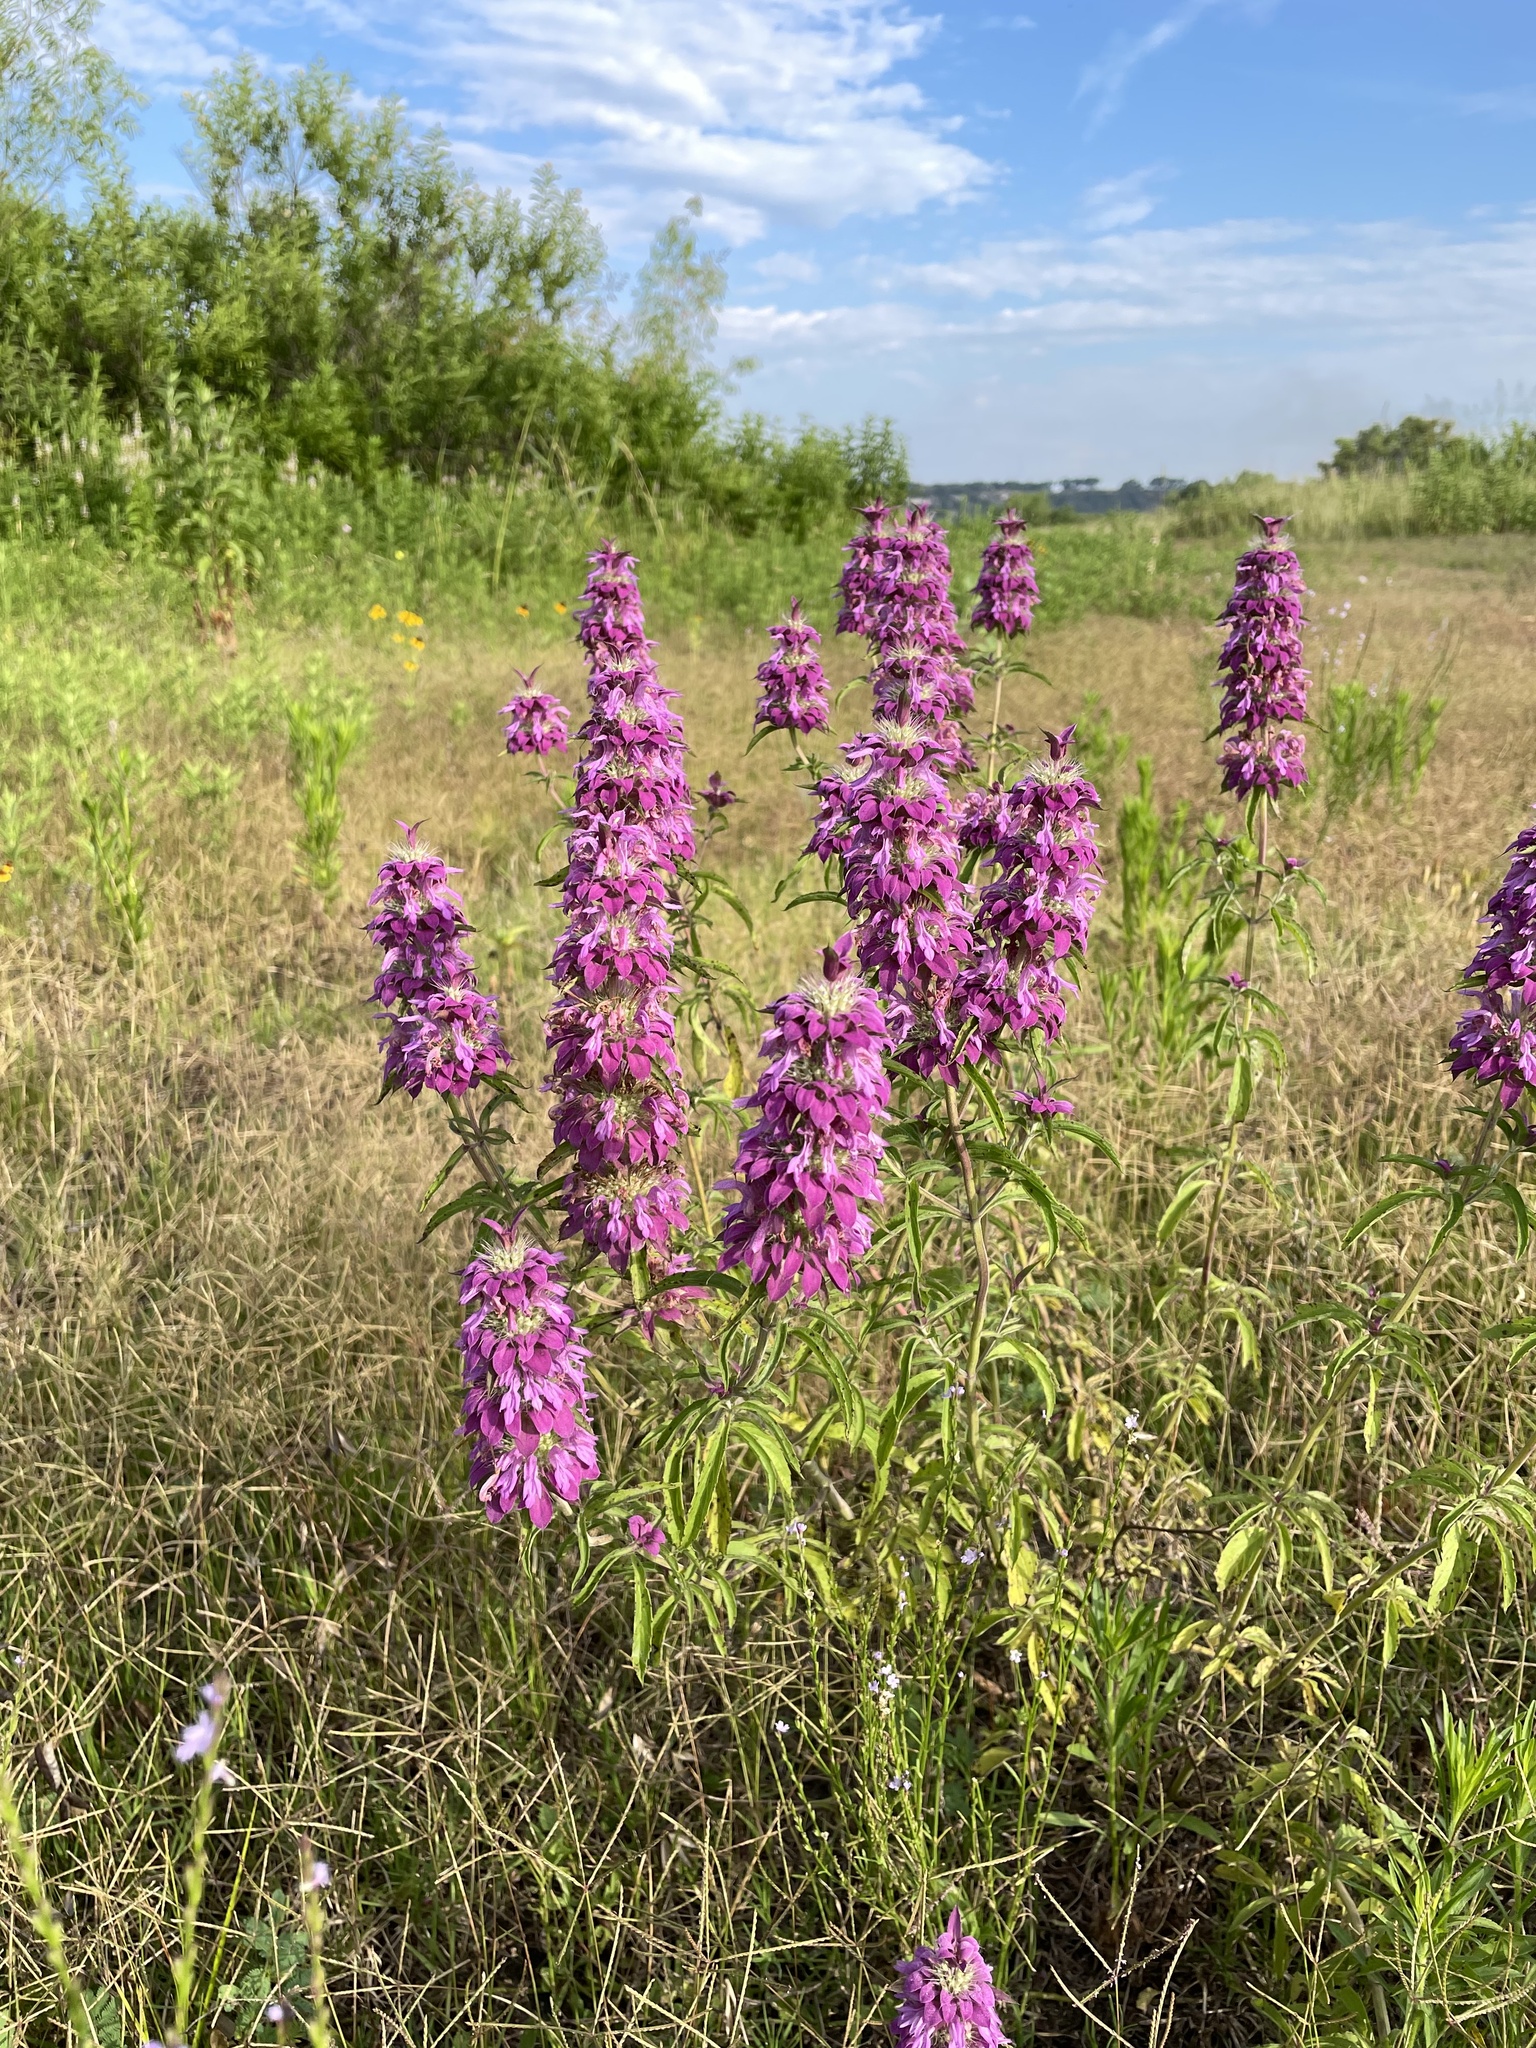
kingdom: Plantae
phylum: Tracheophyta
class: Magnoliopsida
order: Lamiales
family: Lamiaceae
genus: Monarda
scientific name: Monarda citriodora
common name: Lemon beebalm
